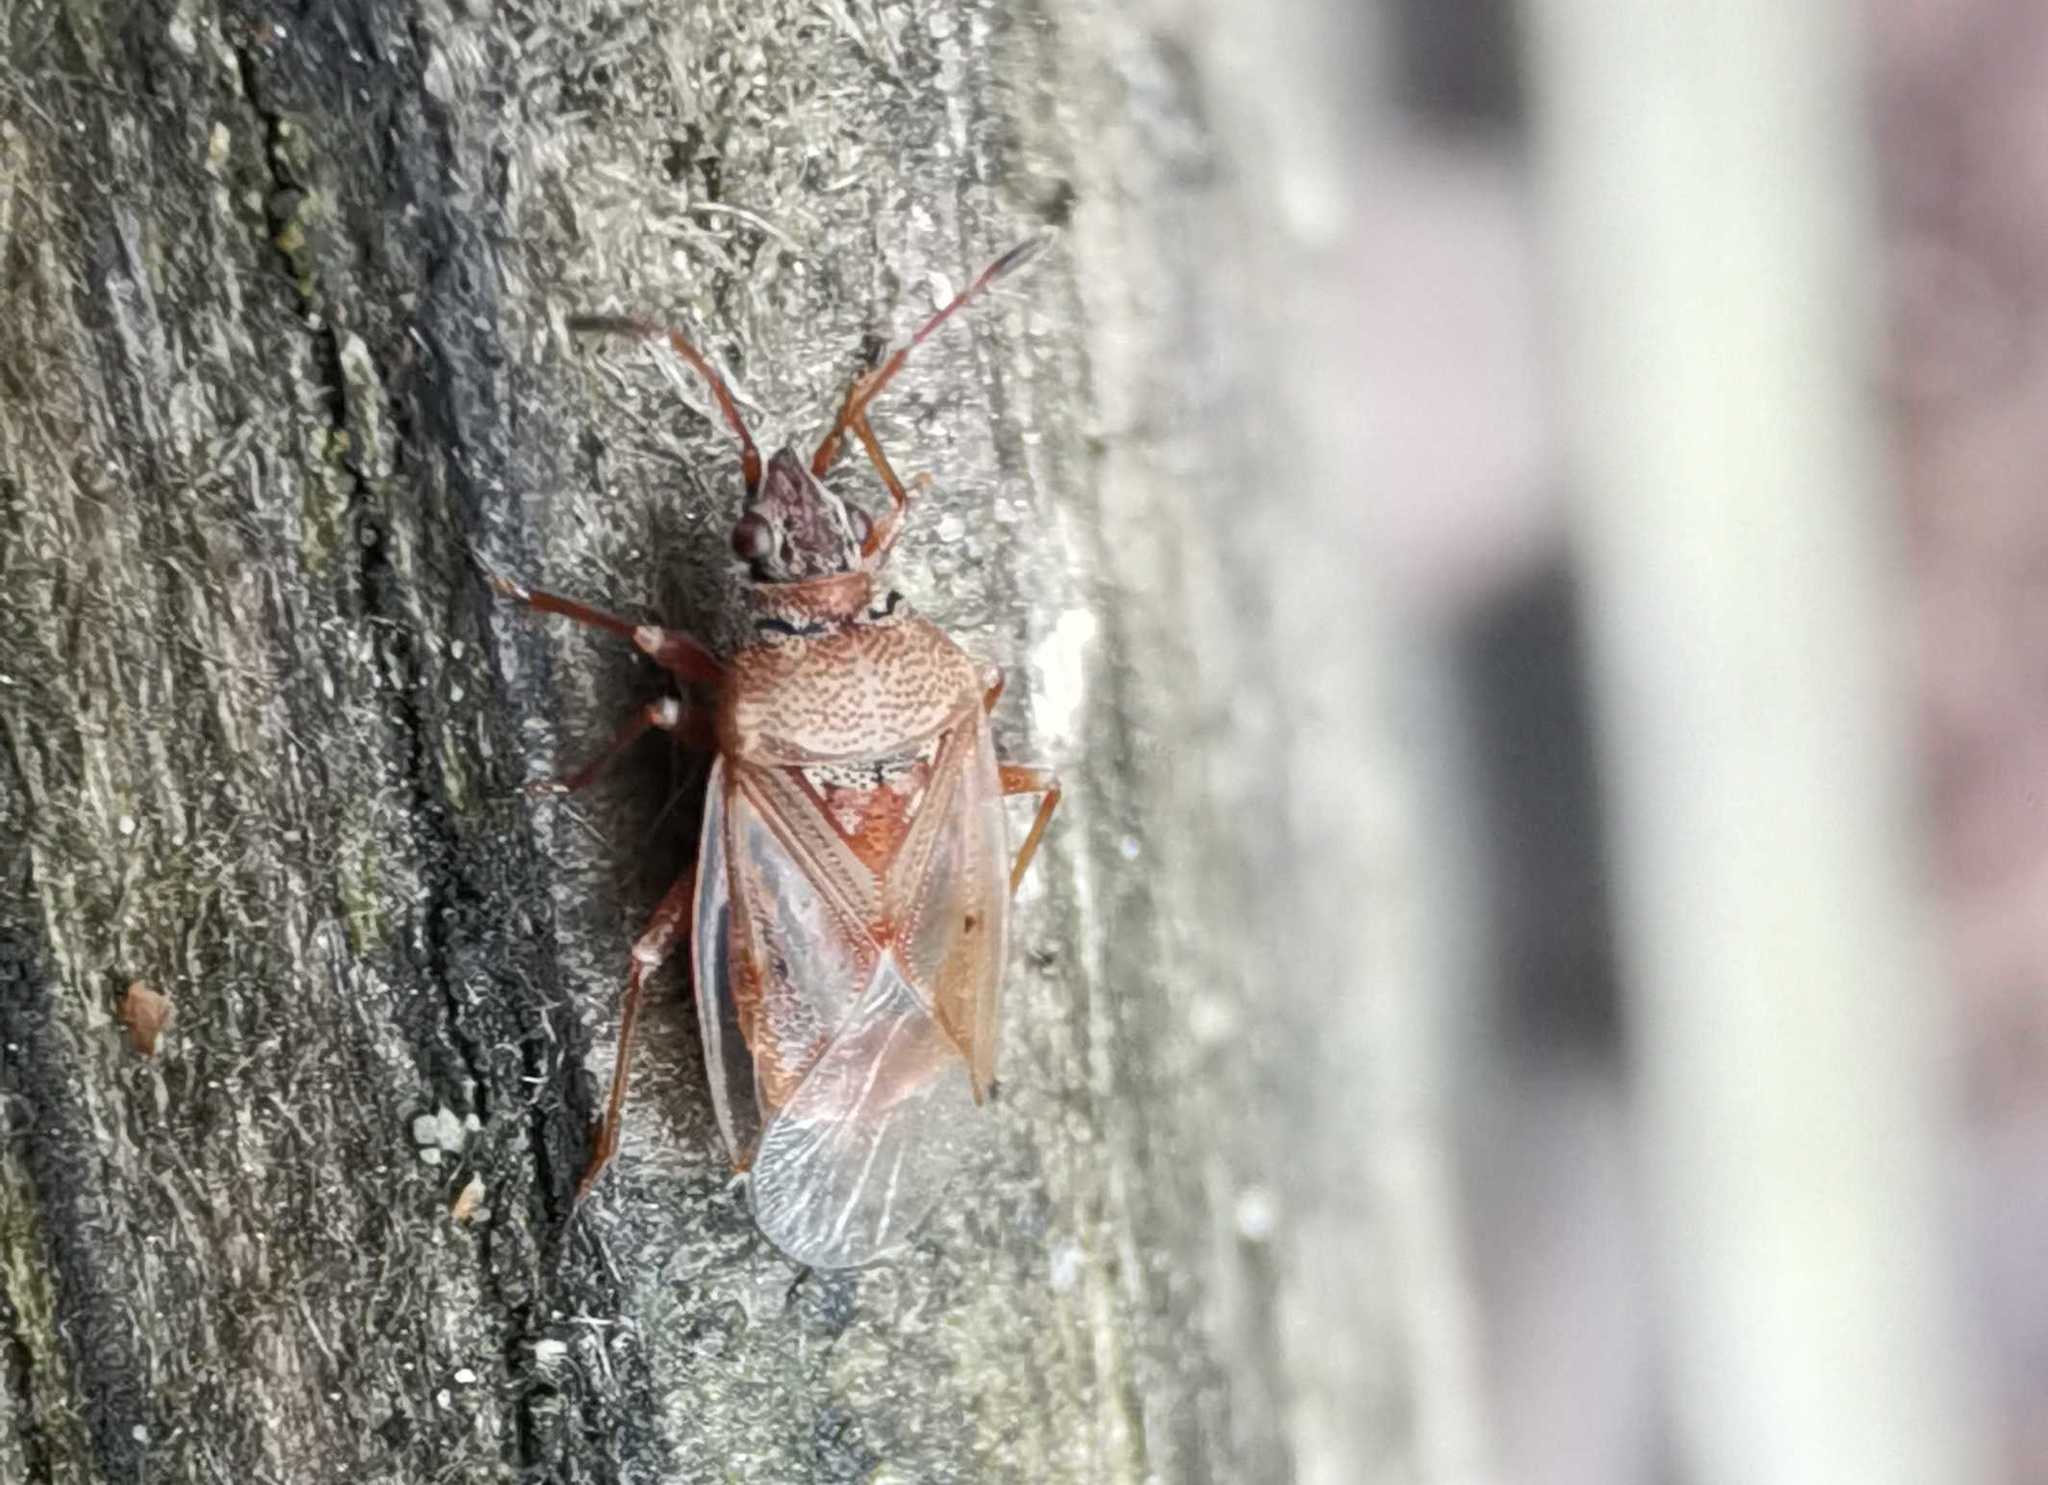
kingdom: Animalia
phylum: Arthropoda
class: Insecta
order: Hemiptera
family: Lygaeidae
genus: Kleidocerys
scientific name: Kleidocerys resedae
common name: Birch catkin bug
